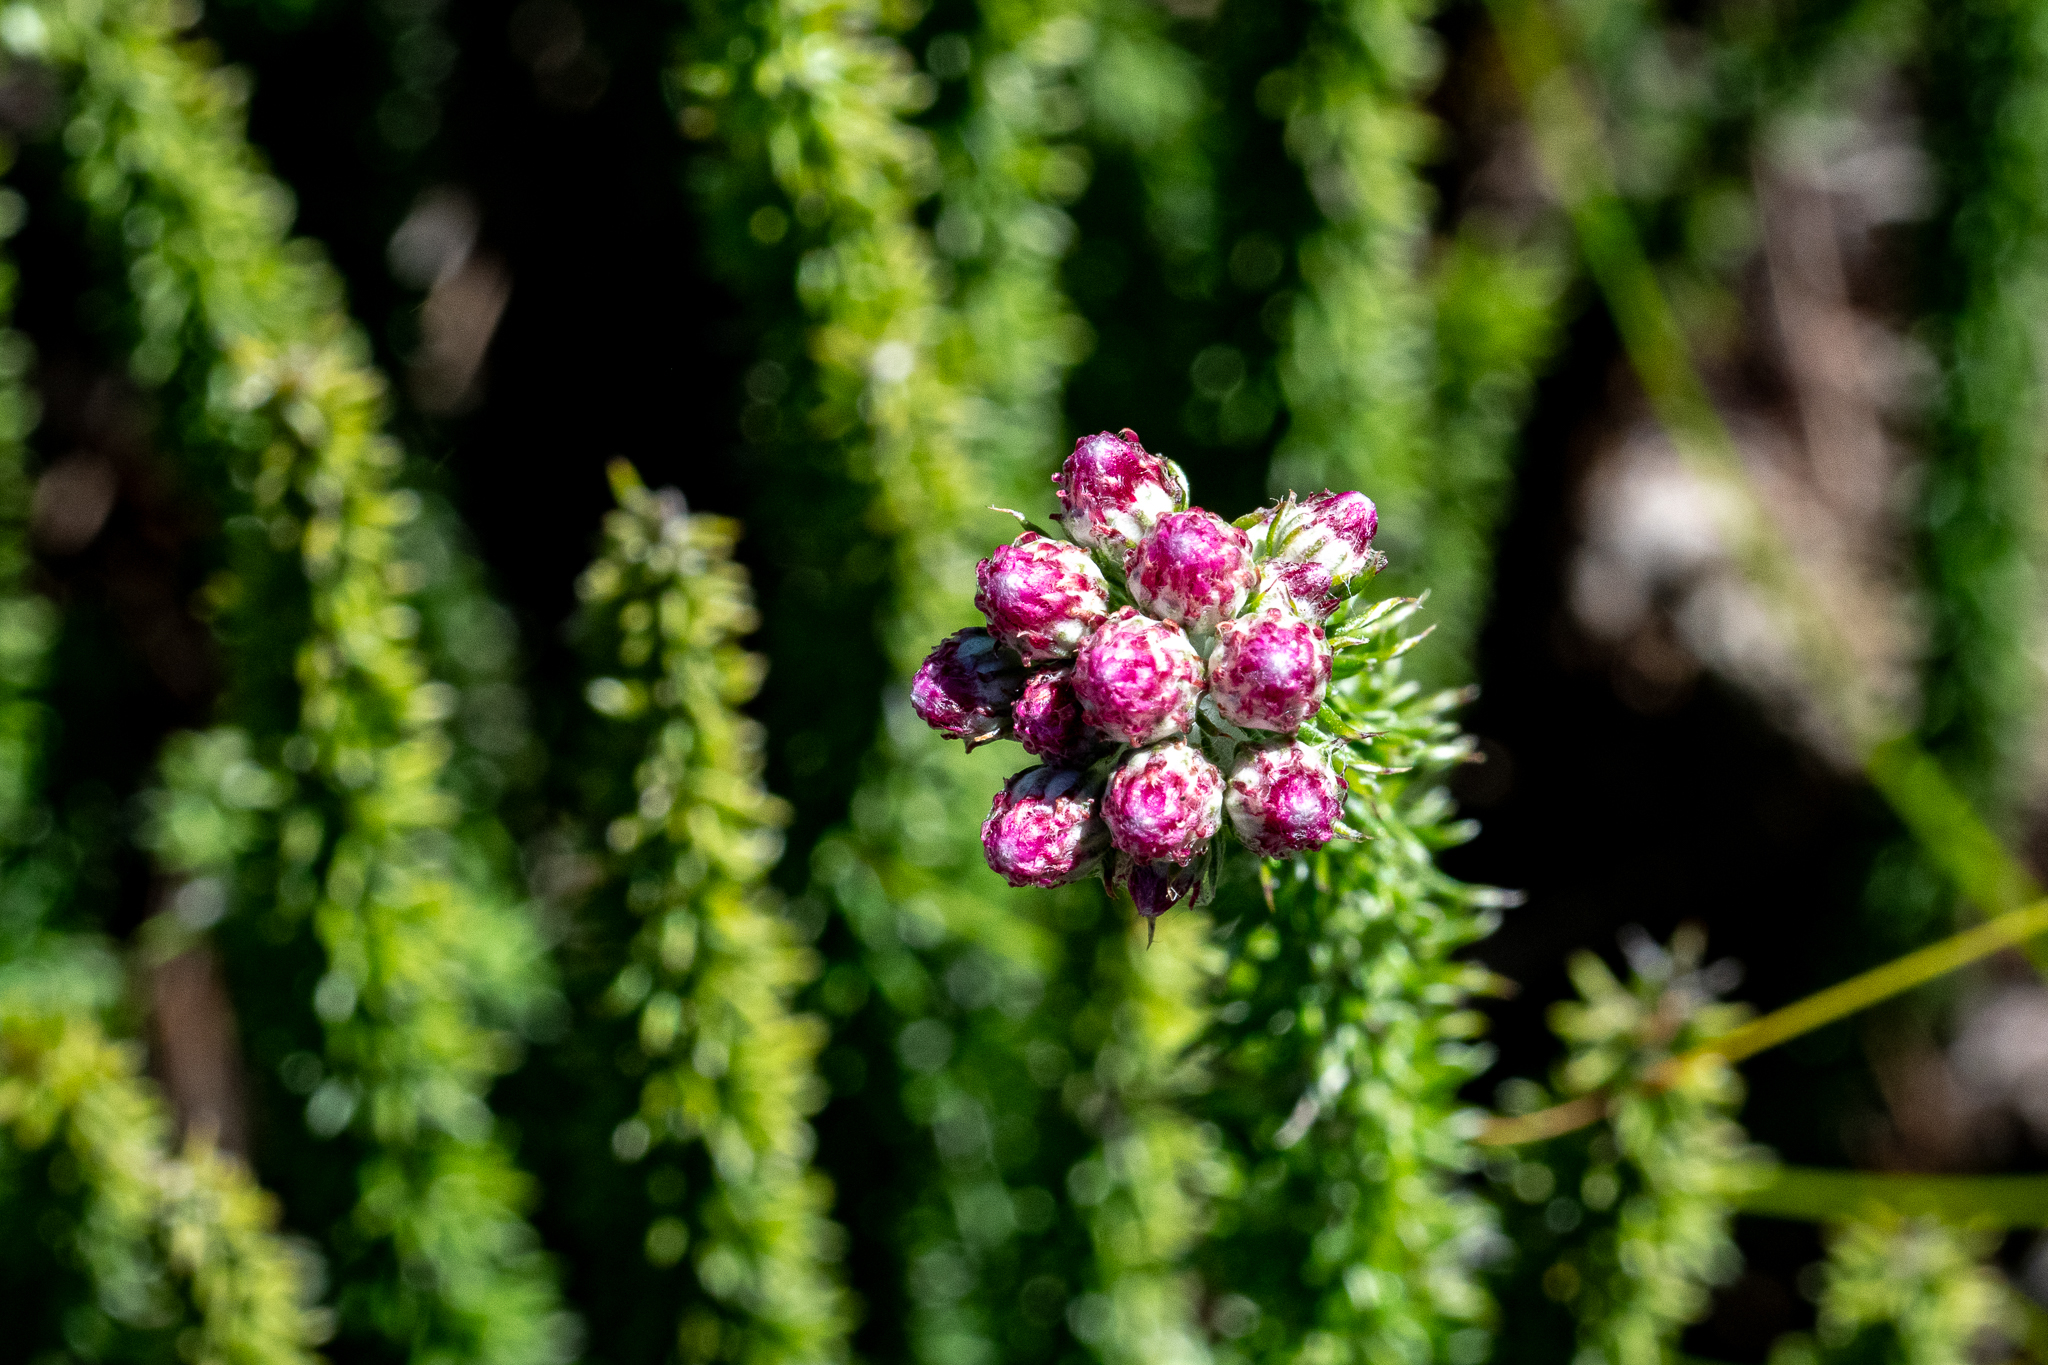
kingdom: Plantae
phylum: Tracheophyta
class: Magnoliopsida
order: Asterales
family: Asteraceae
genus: Lachnospermum
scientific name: Lachnospermum umbellatum
